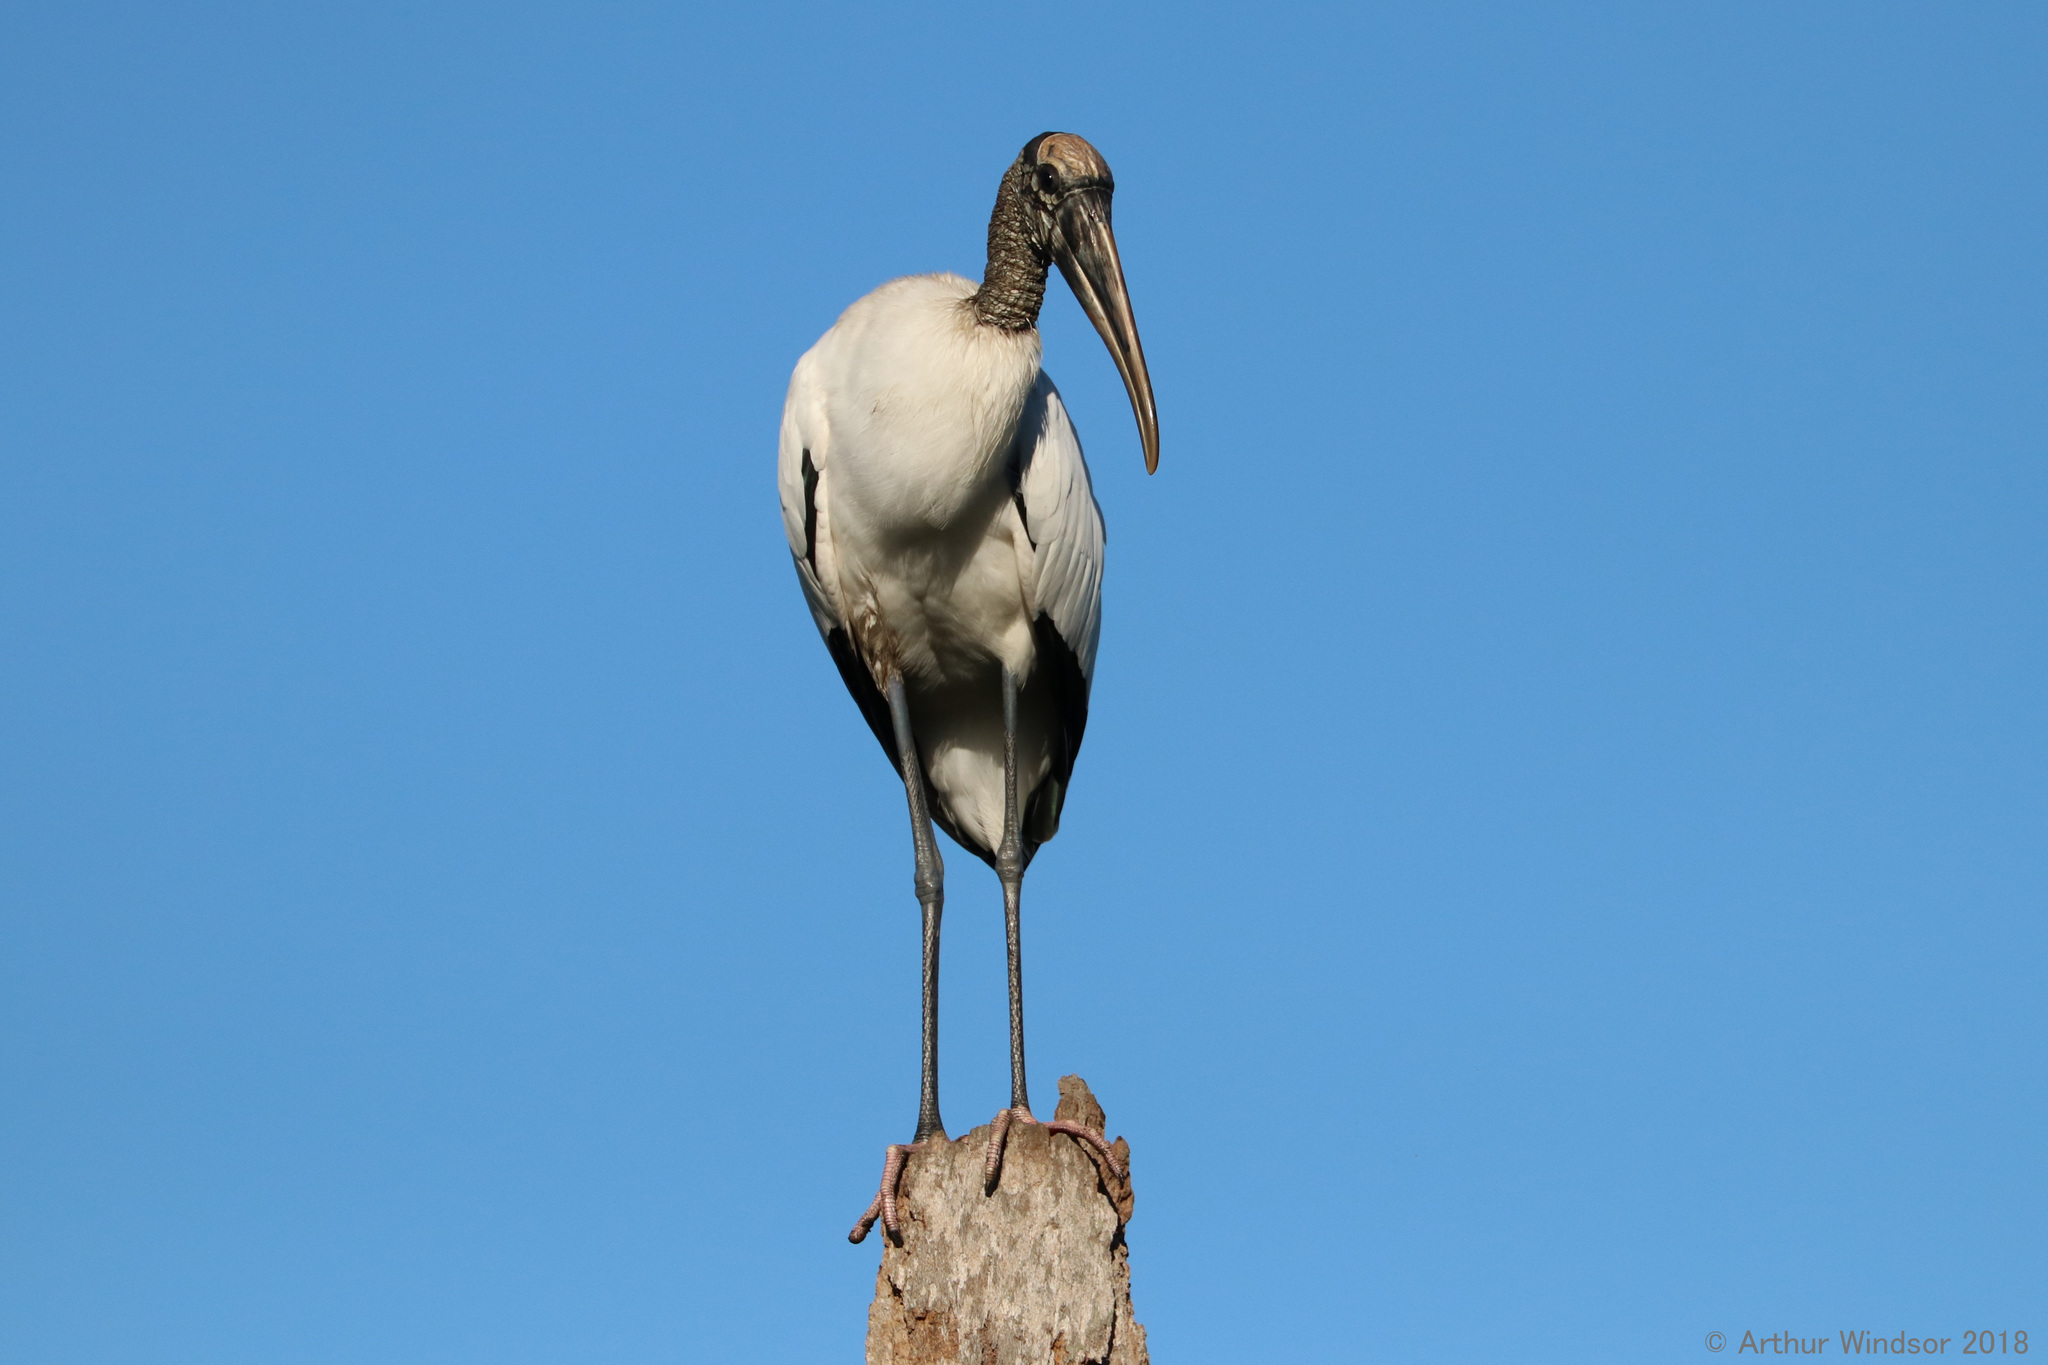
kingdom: Animalia
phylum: Chordata
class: Aves
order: Ciconiiformes
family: Ciconiidae
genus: Mycteria
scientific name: Mycteria americana
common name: Wood stork
